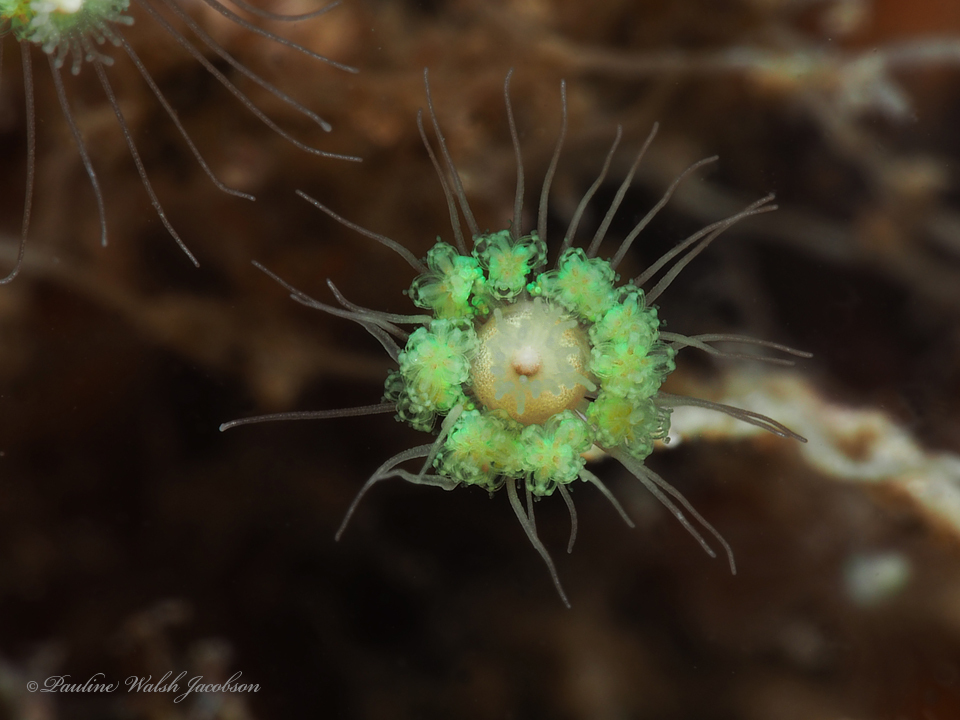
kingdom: Animalia
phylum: Cnidaria
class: Hydrozoa
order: Leptothecata
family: Lafoeidae
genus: Filellum
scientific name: Filellum bouvetensis
